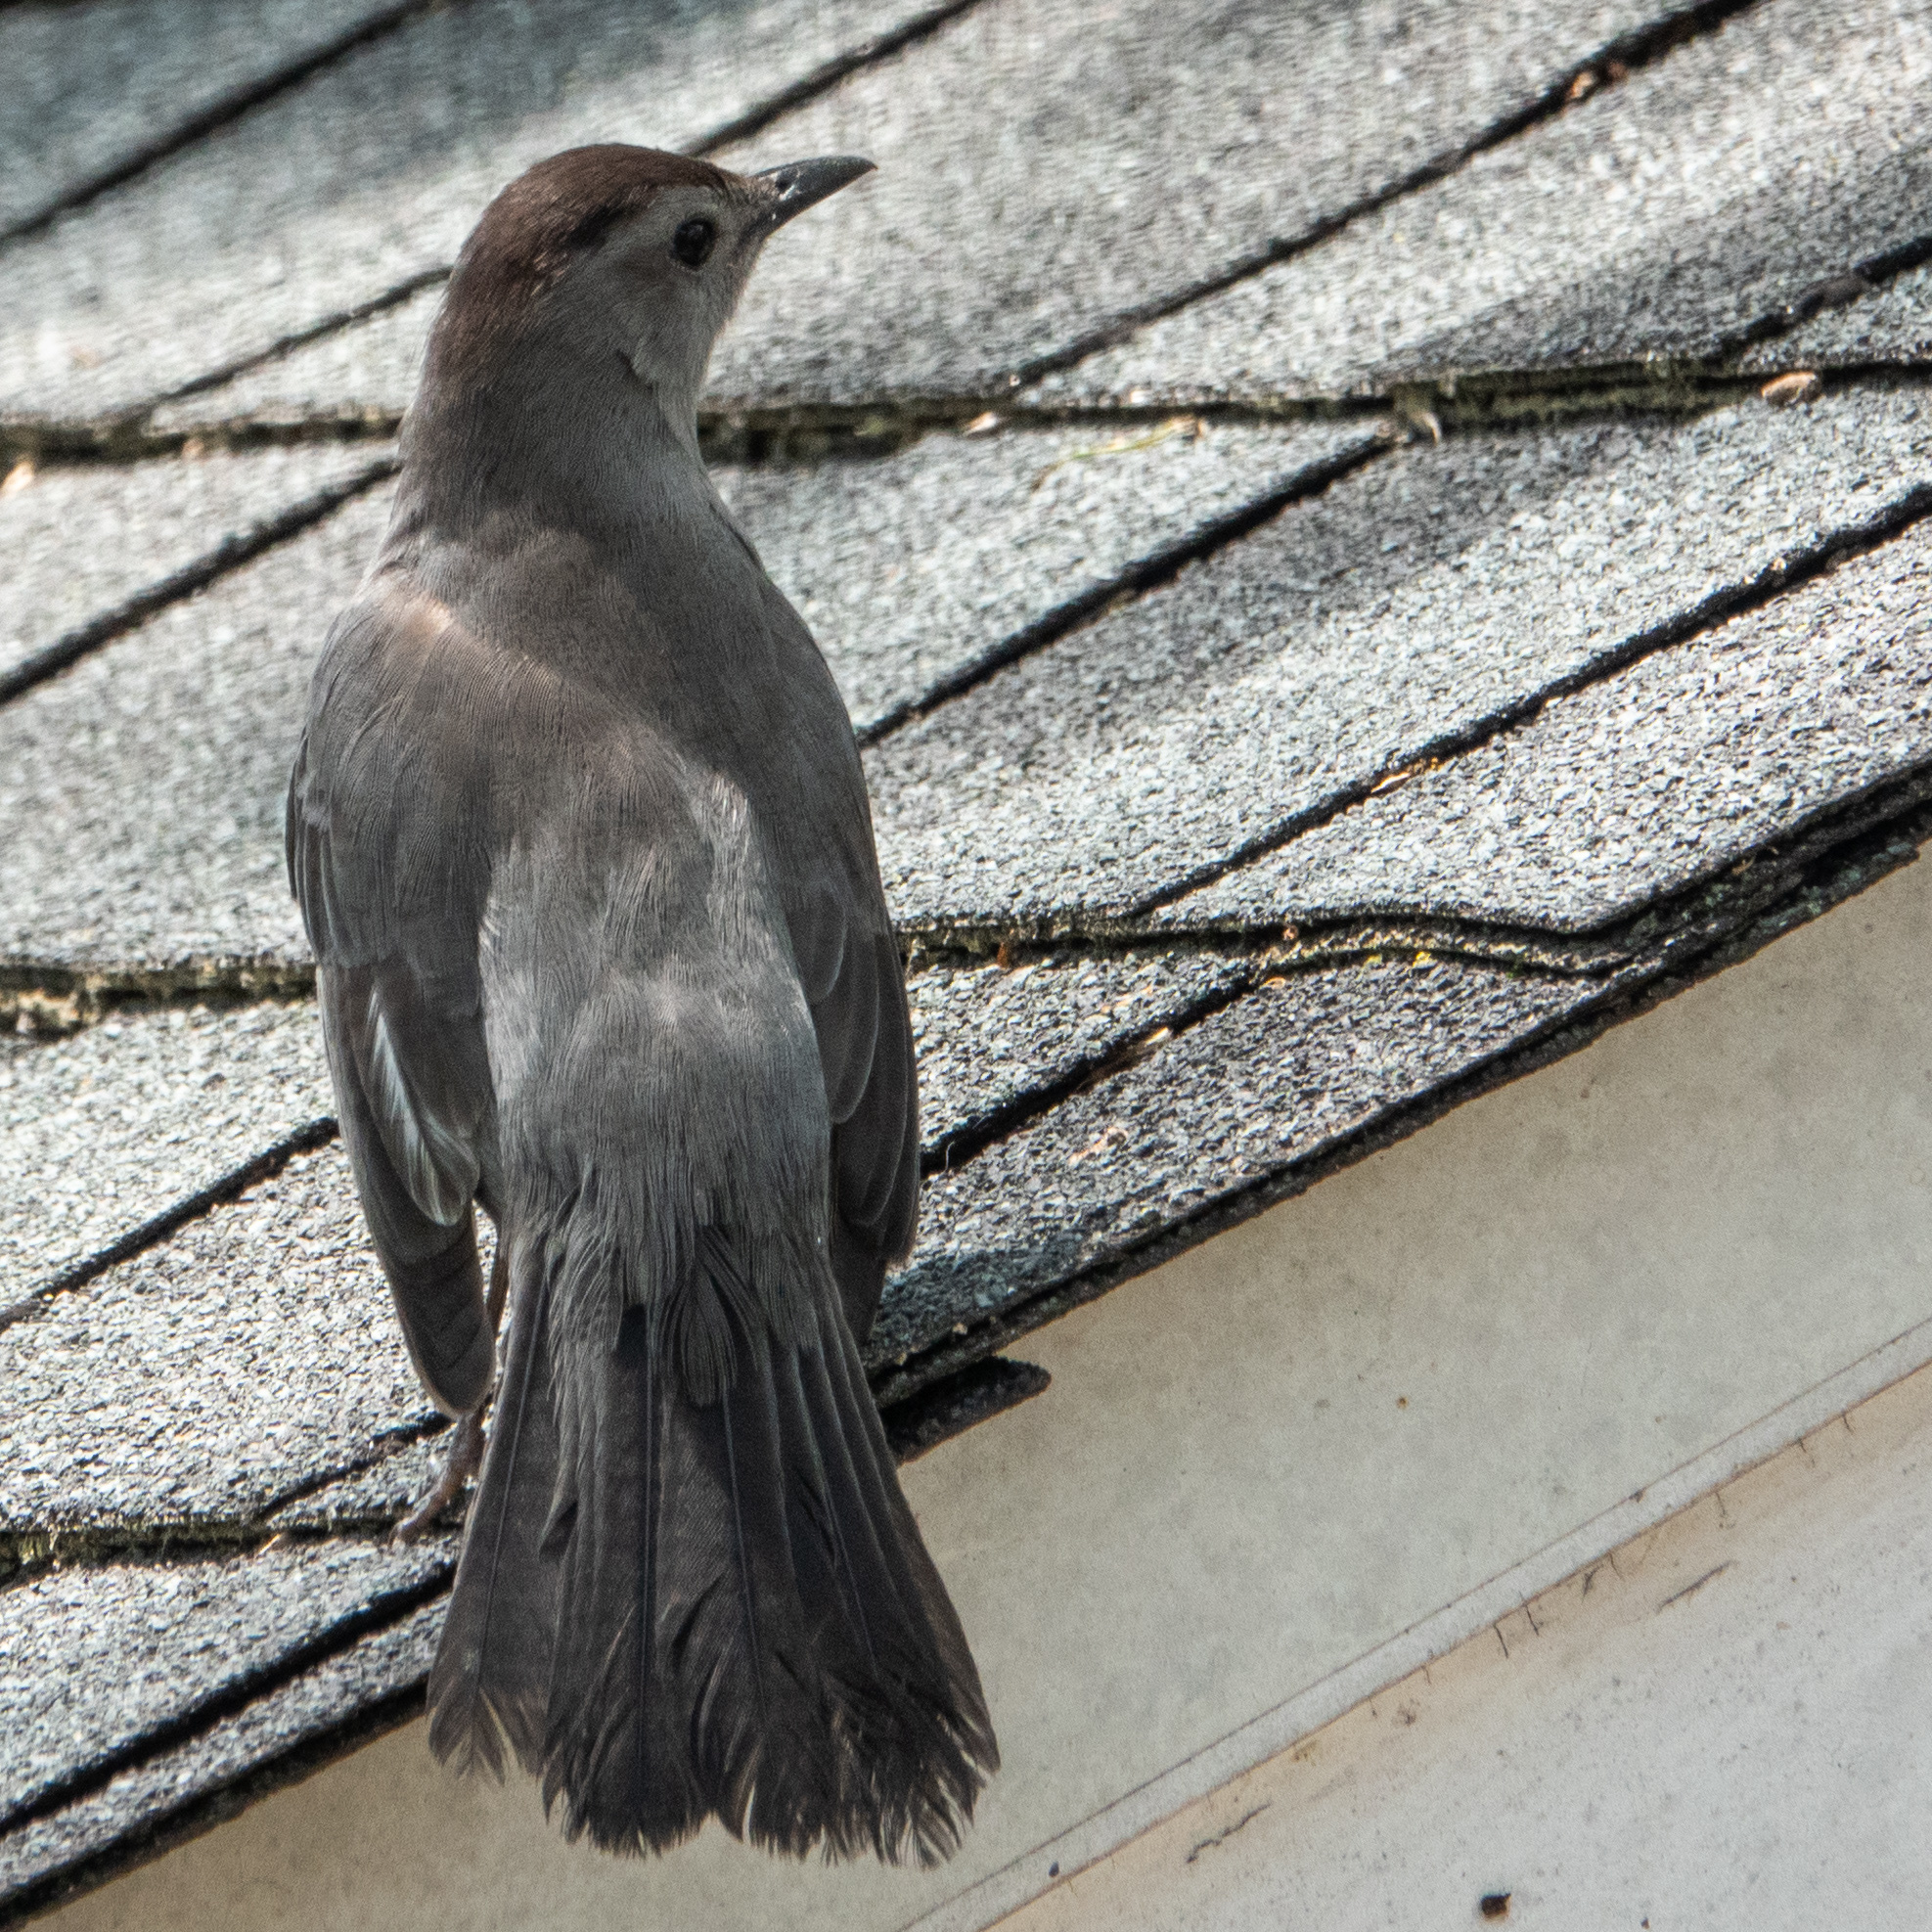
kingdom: Animalia
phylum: Chordata
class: Aves
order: Passeriformes
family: Mimidae
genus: Dumetella
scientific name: Dumetella carolinensis
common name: Gray catbird
